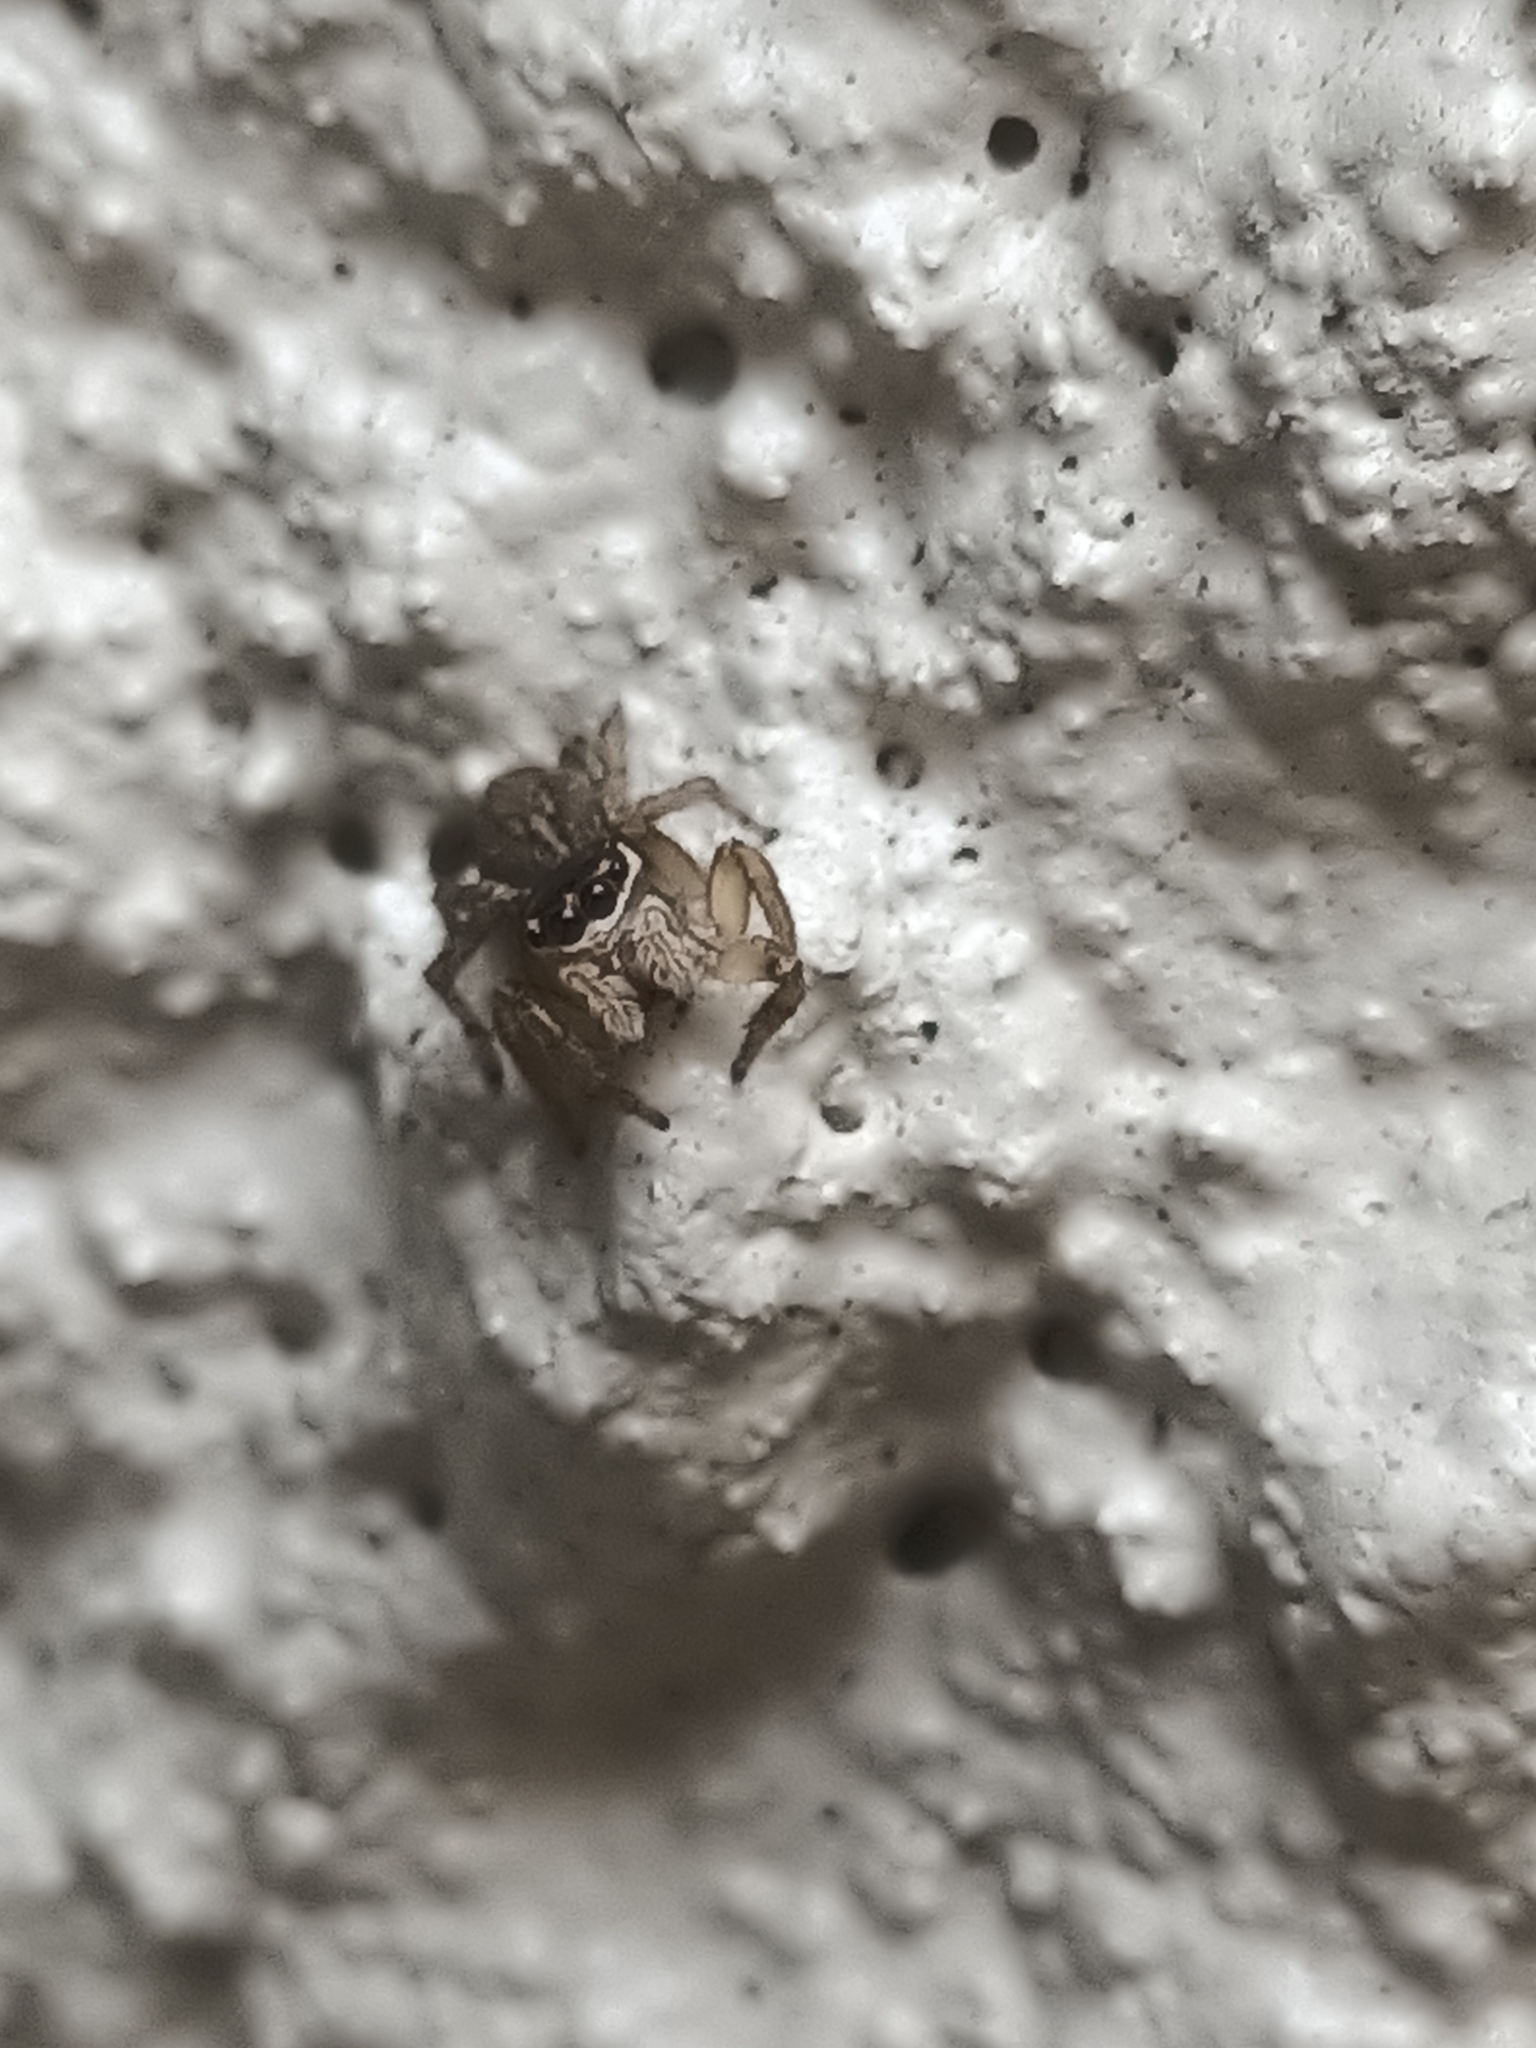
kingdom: Animalia
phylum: Arthropoda
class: Arachnida
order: Araneae
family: Salticidae
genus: Maratus
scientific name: Maratus griseus
